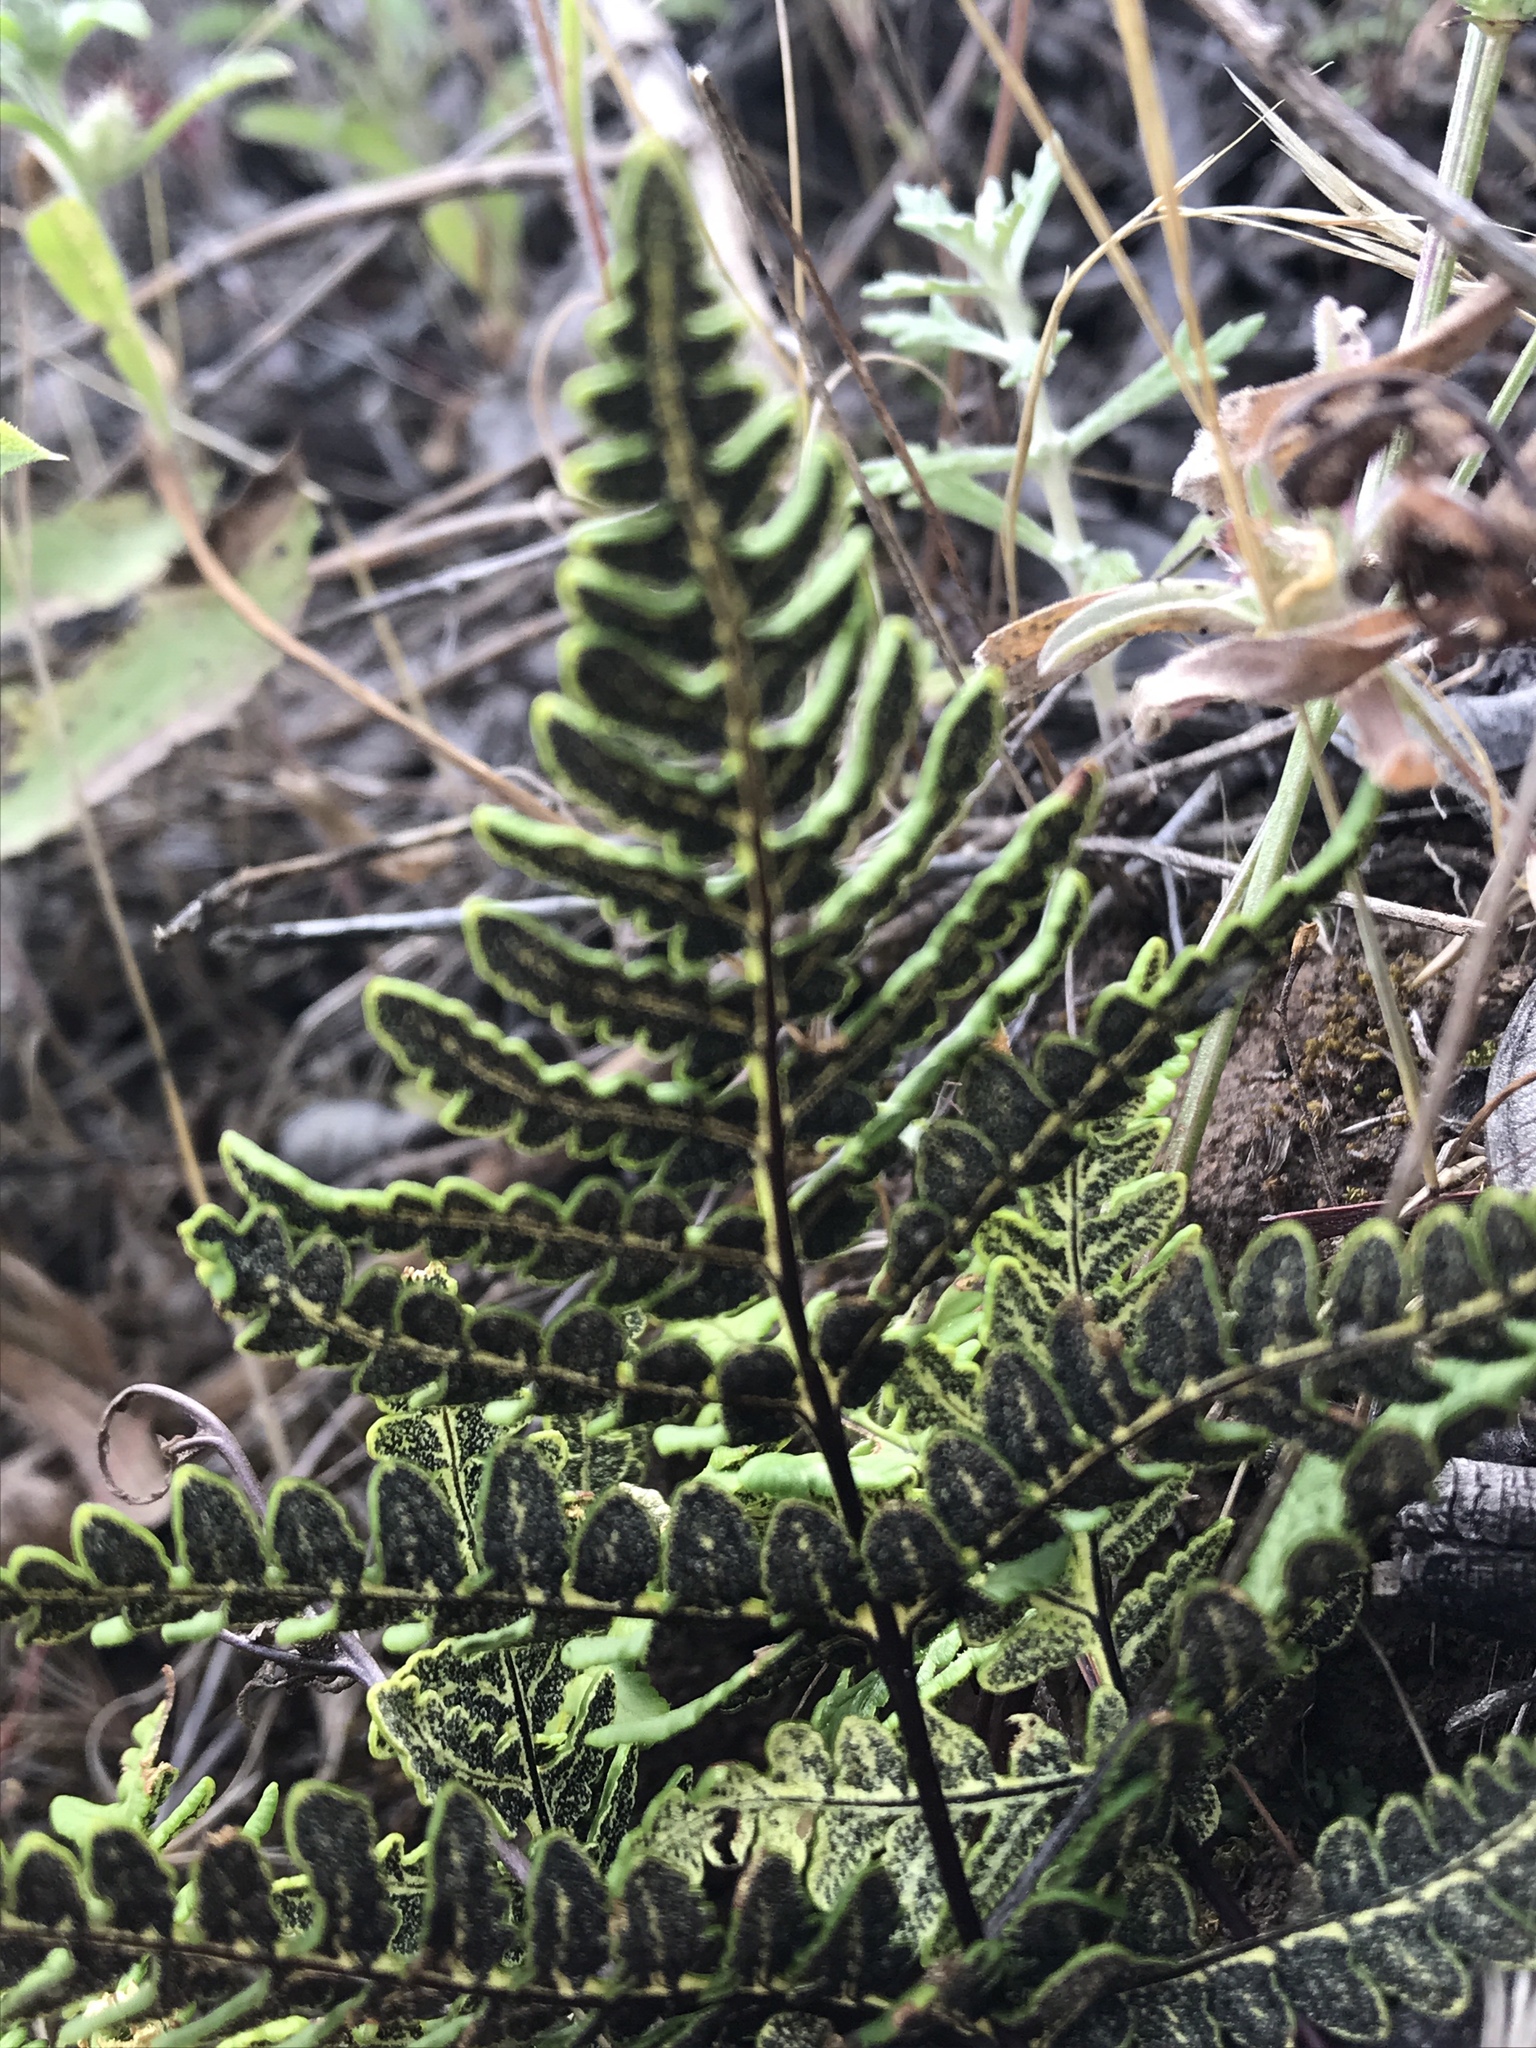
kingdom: Plantae
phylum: Tracheophyta
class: Polypodiopsida
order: Polypodiales
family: Pteridaceae
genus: Pentagramma
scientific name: Pentagramma triangularis
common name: Gold fern
